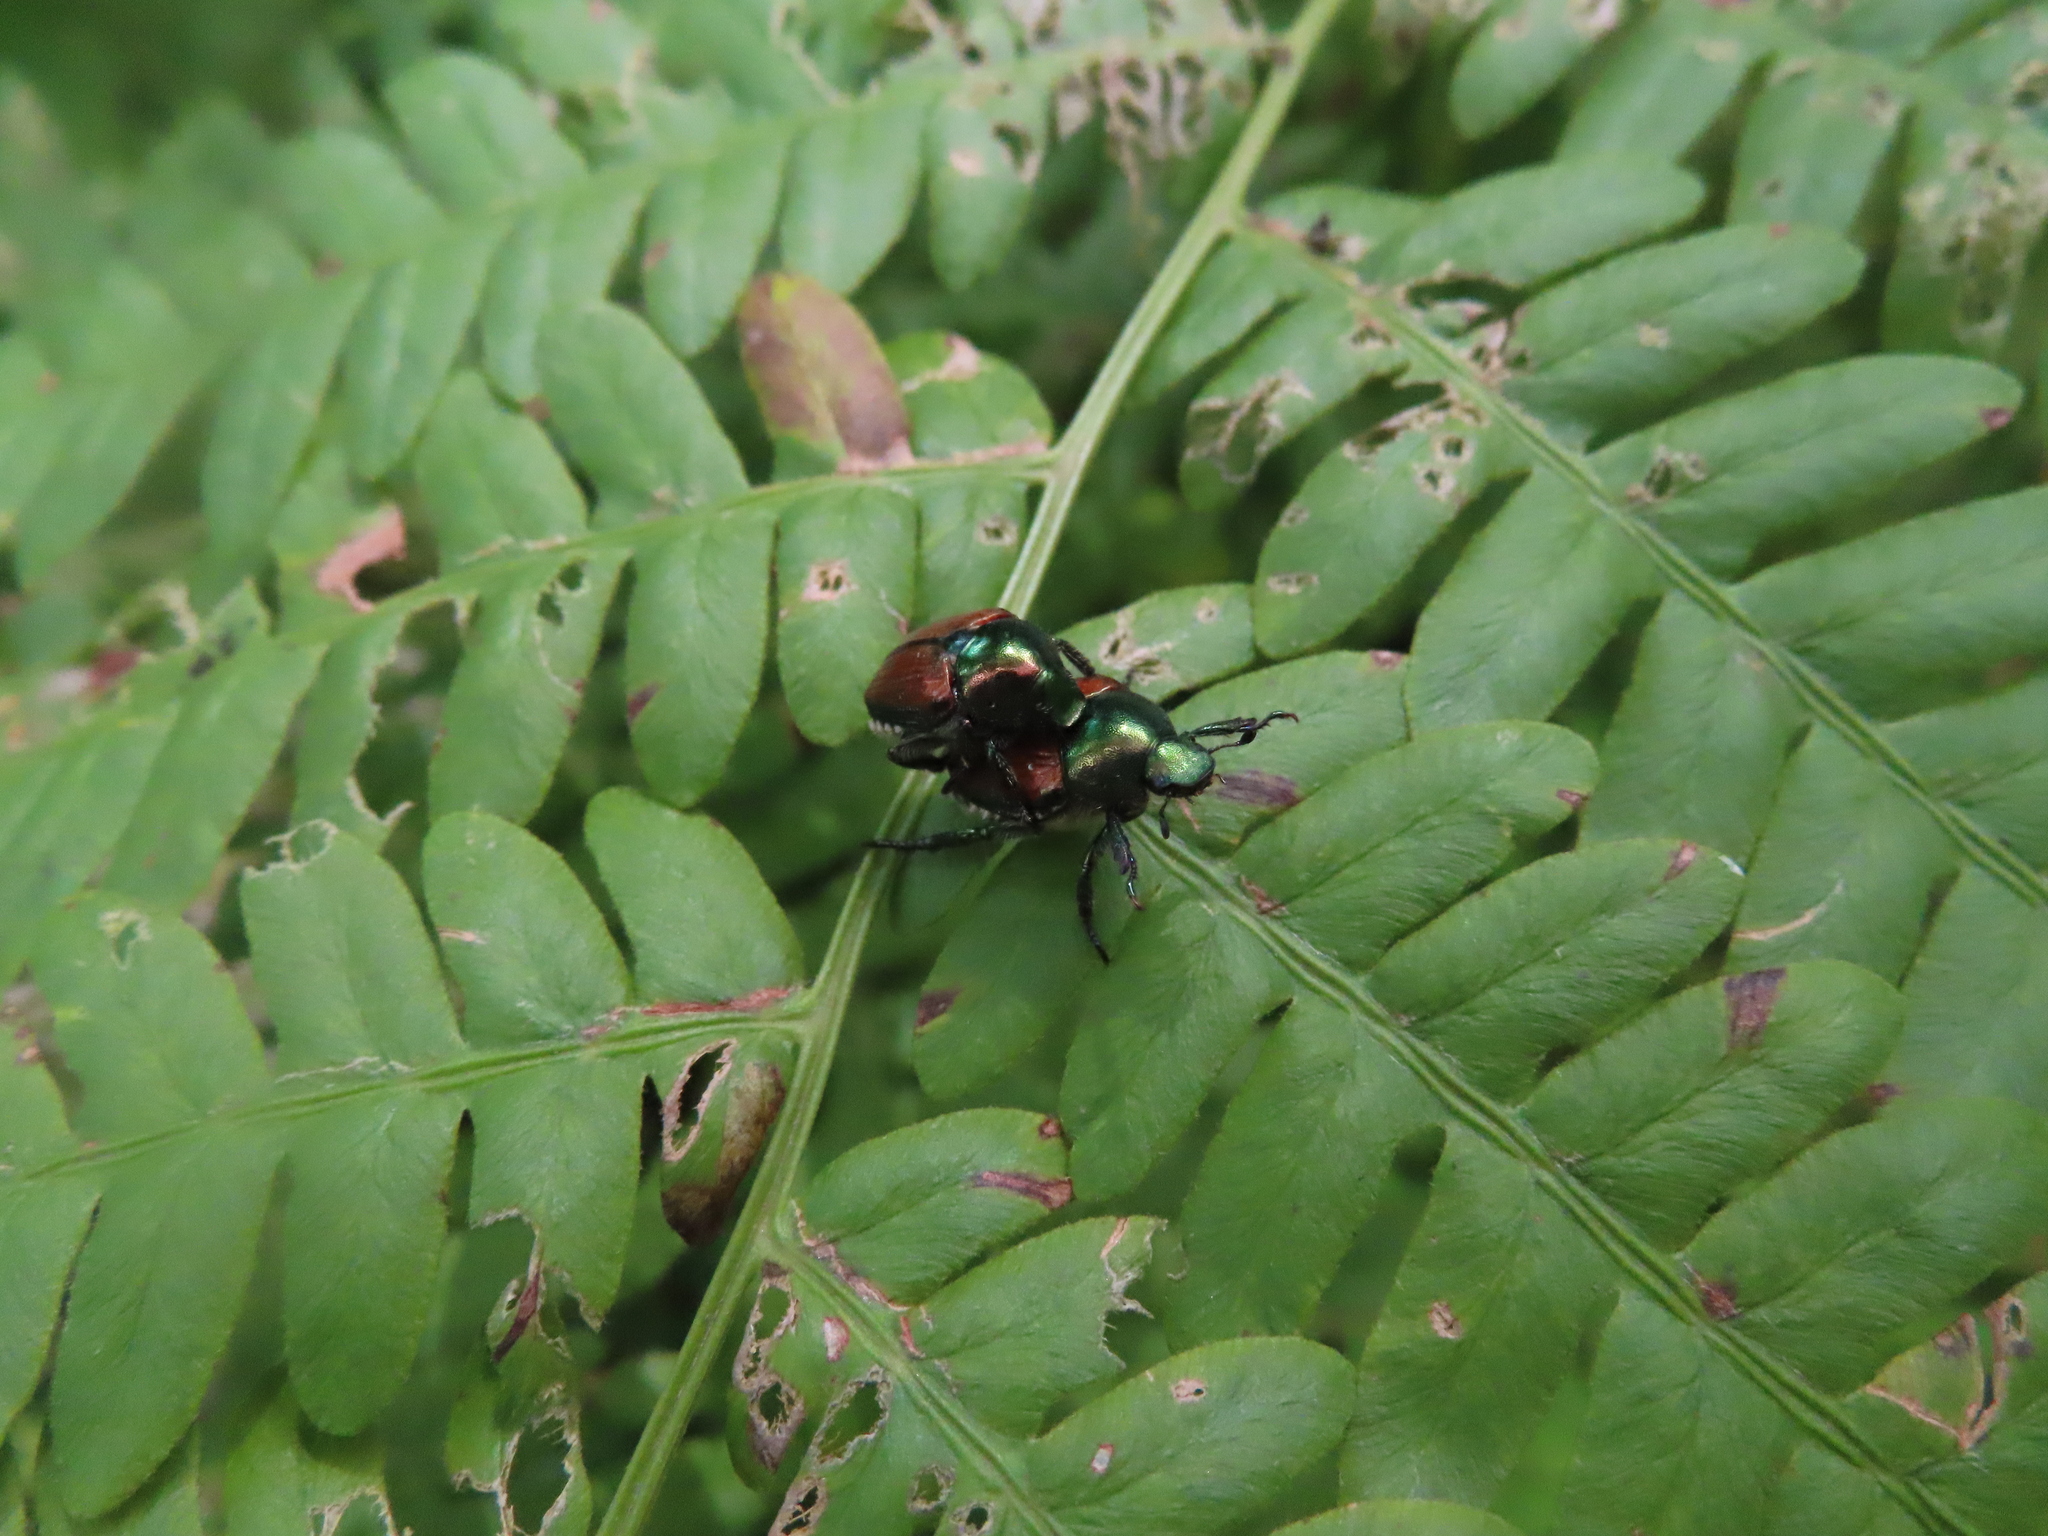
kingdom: Animalia
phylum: Arthropoda
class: Insecta
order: Coleoptera
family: Scarabaeidae
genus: Popillia
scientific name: Popillia japonica
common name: Japanese beetle
